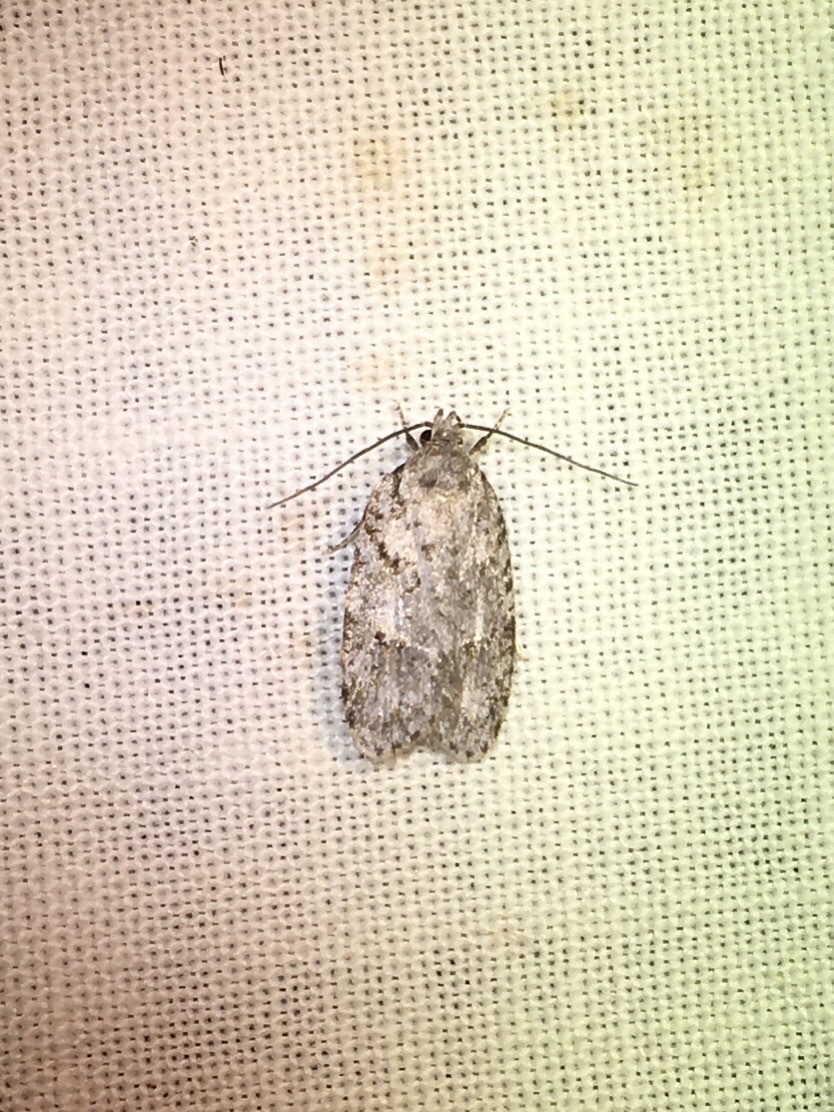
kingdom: Animalia
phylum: Arthropoda
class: Insecta
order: Lepidoptera
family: Depressariidae
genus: Bibarrambla
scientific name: Bibarrambla allenella
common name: Bog bibarrambla moth
